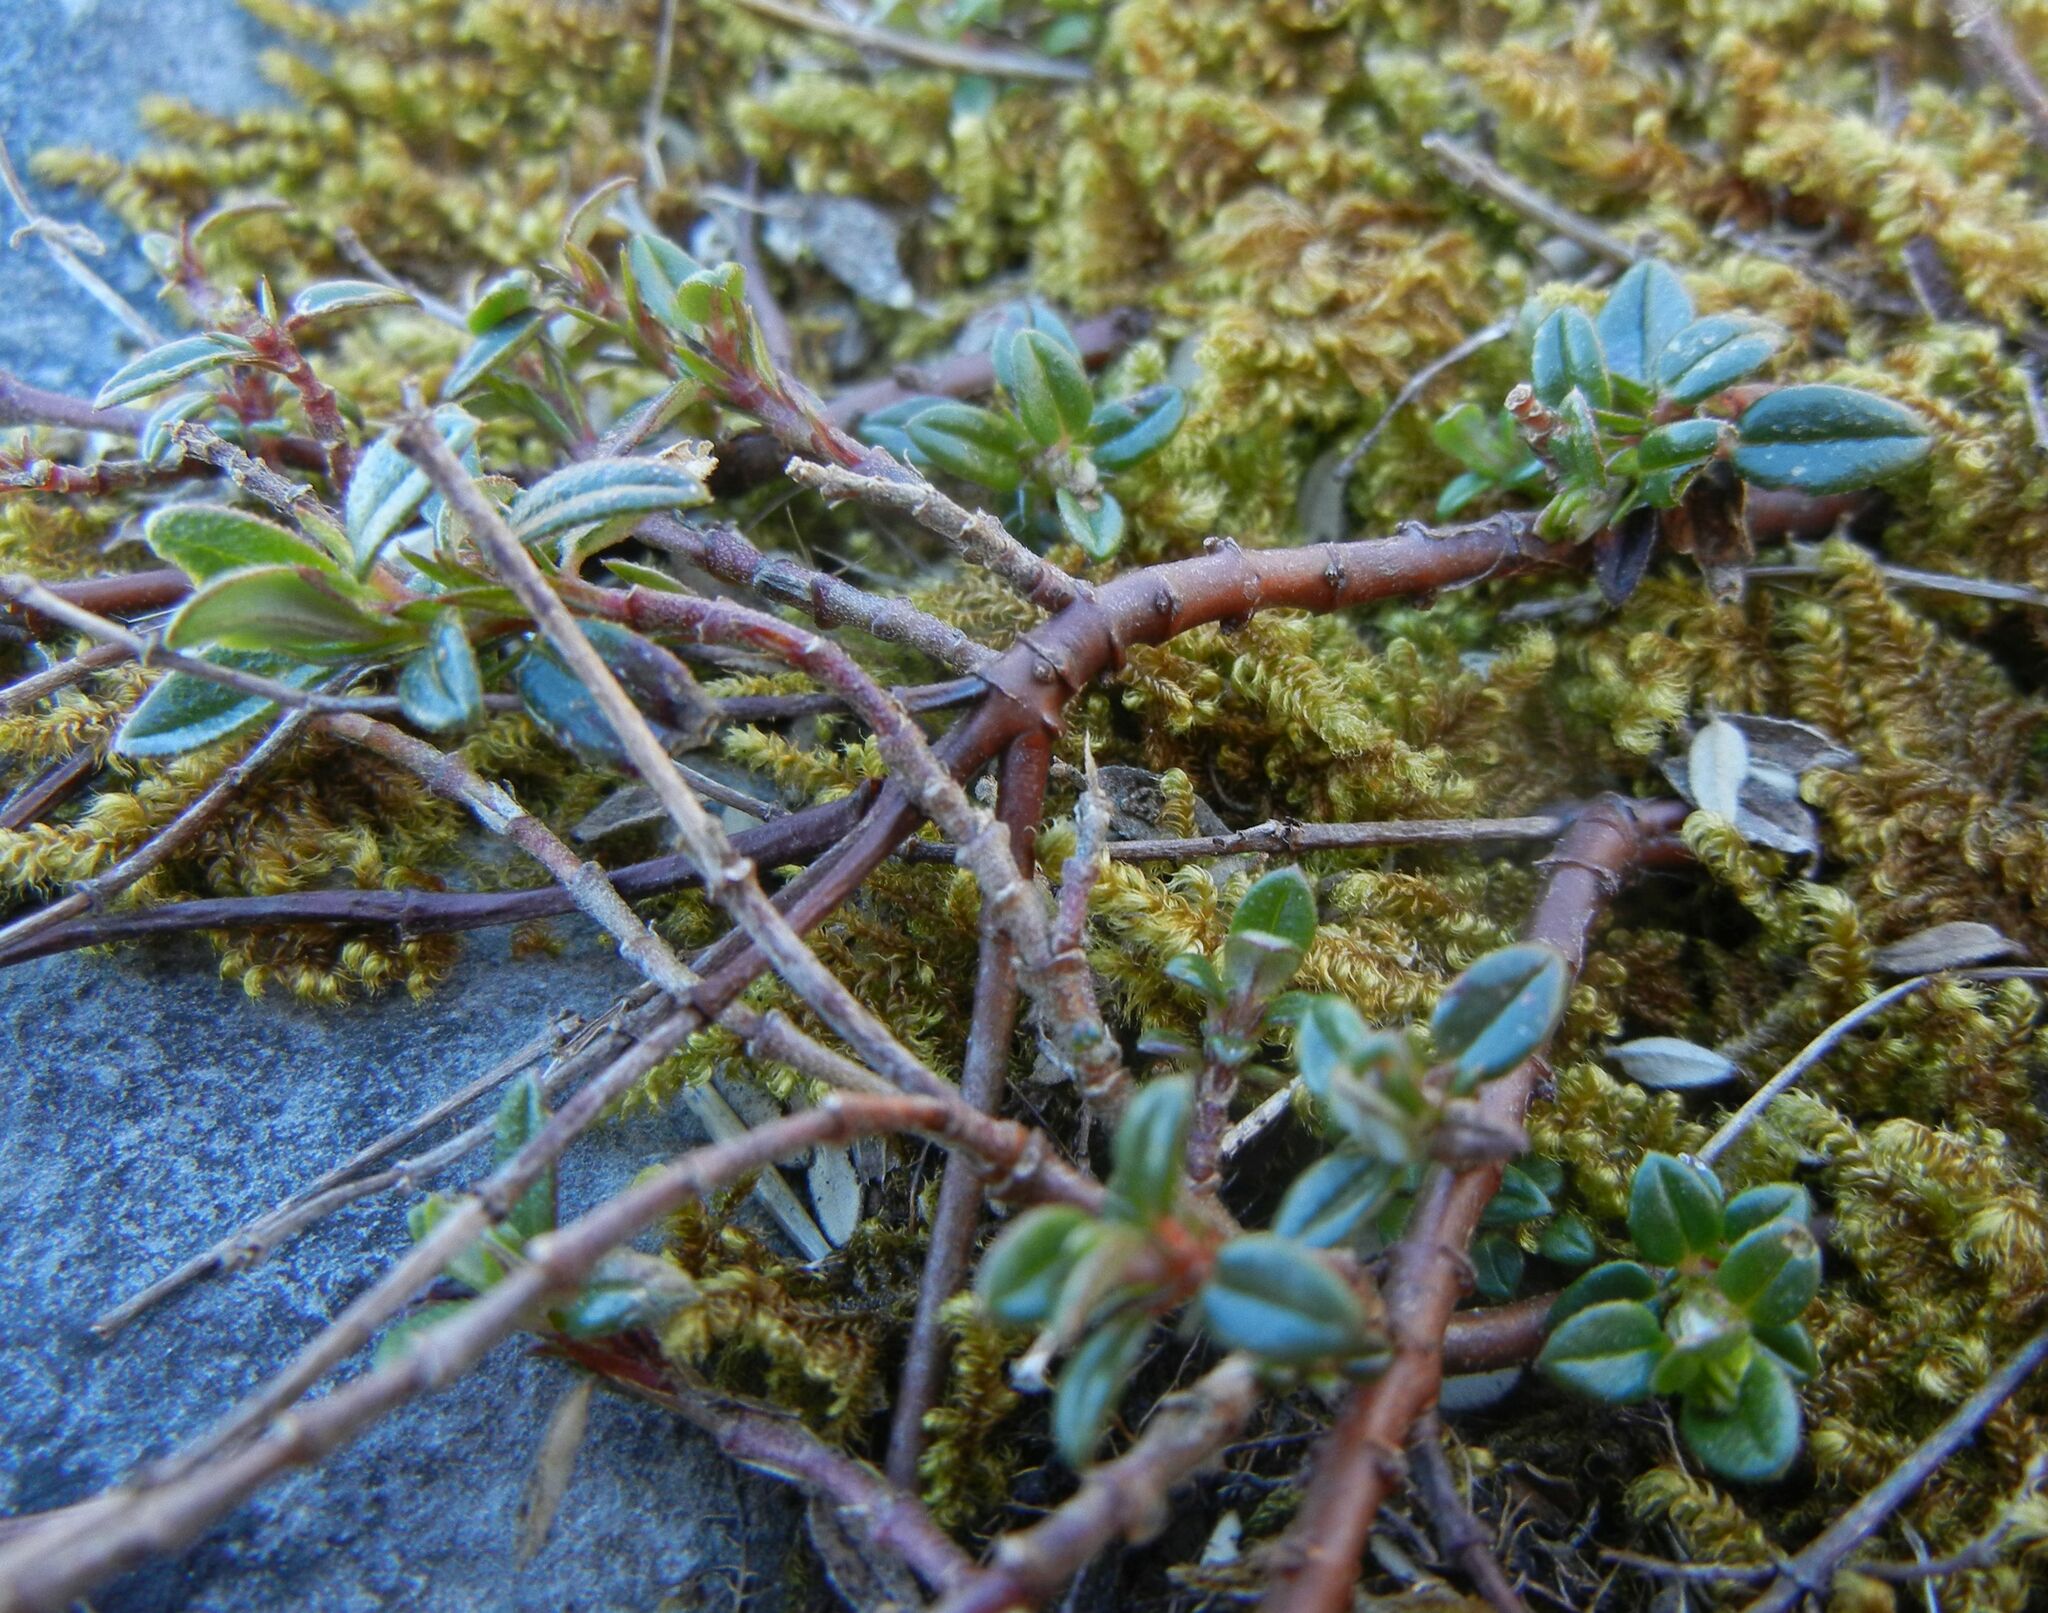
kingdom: Plantae
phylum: Tracheophyta
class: Magnoliopsida
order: Malvales
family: Cistaceae
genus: Helianthemum
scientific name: Helianthemum nummularium
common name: Common rock-rose
